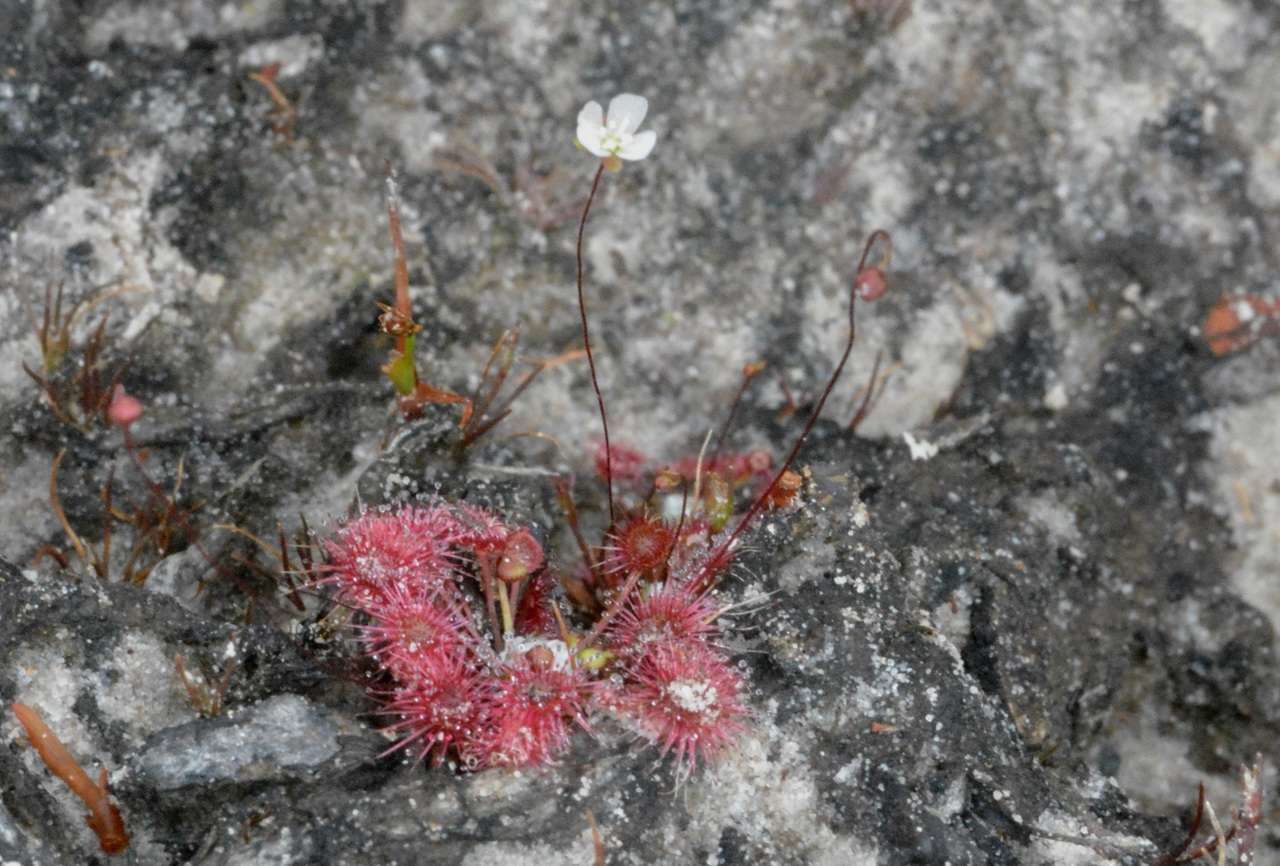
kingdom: Plantae
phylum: Tracheophyta
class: Magnoliopsida
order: Caryophyllales
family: Droseraceae
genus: Drosera
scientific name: Drosera pygmaea
